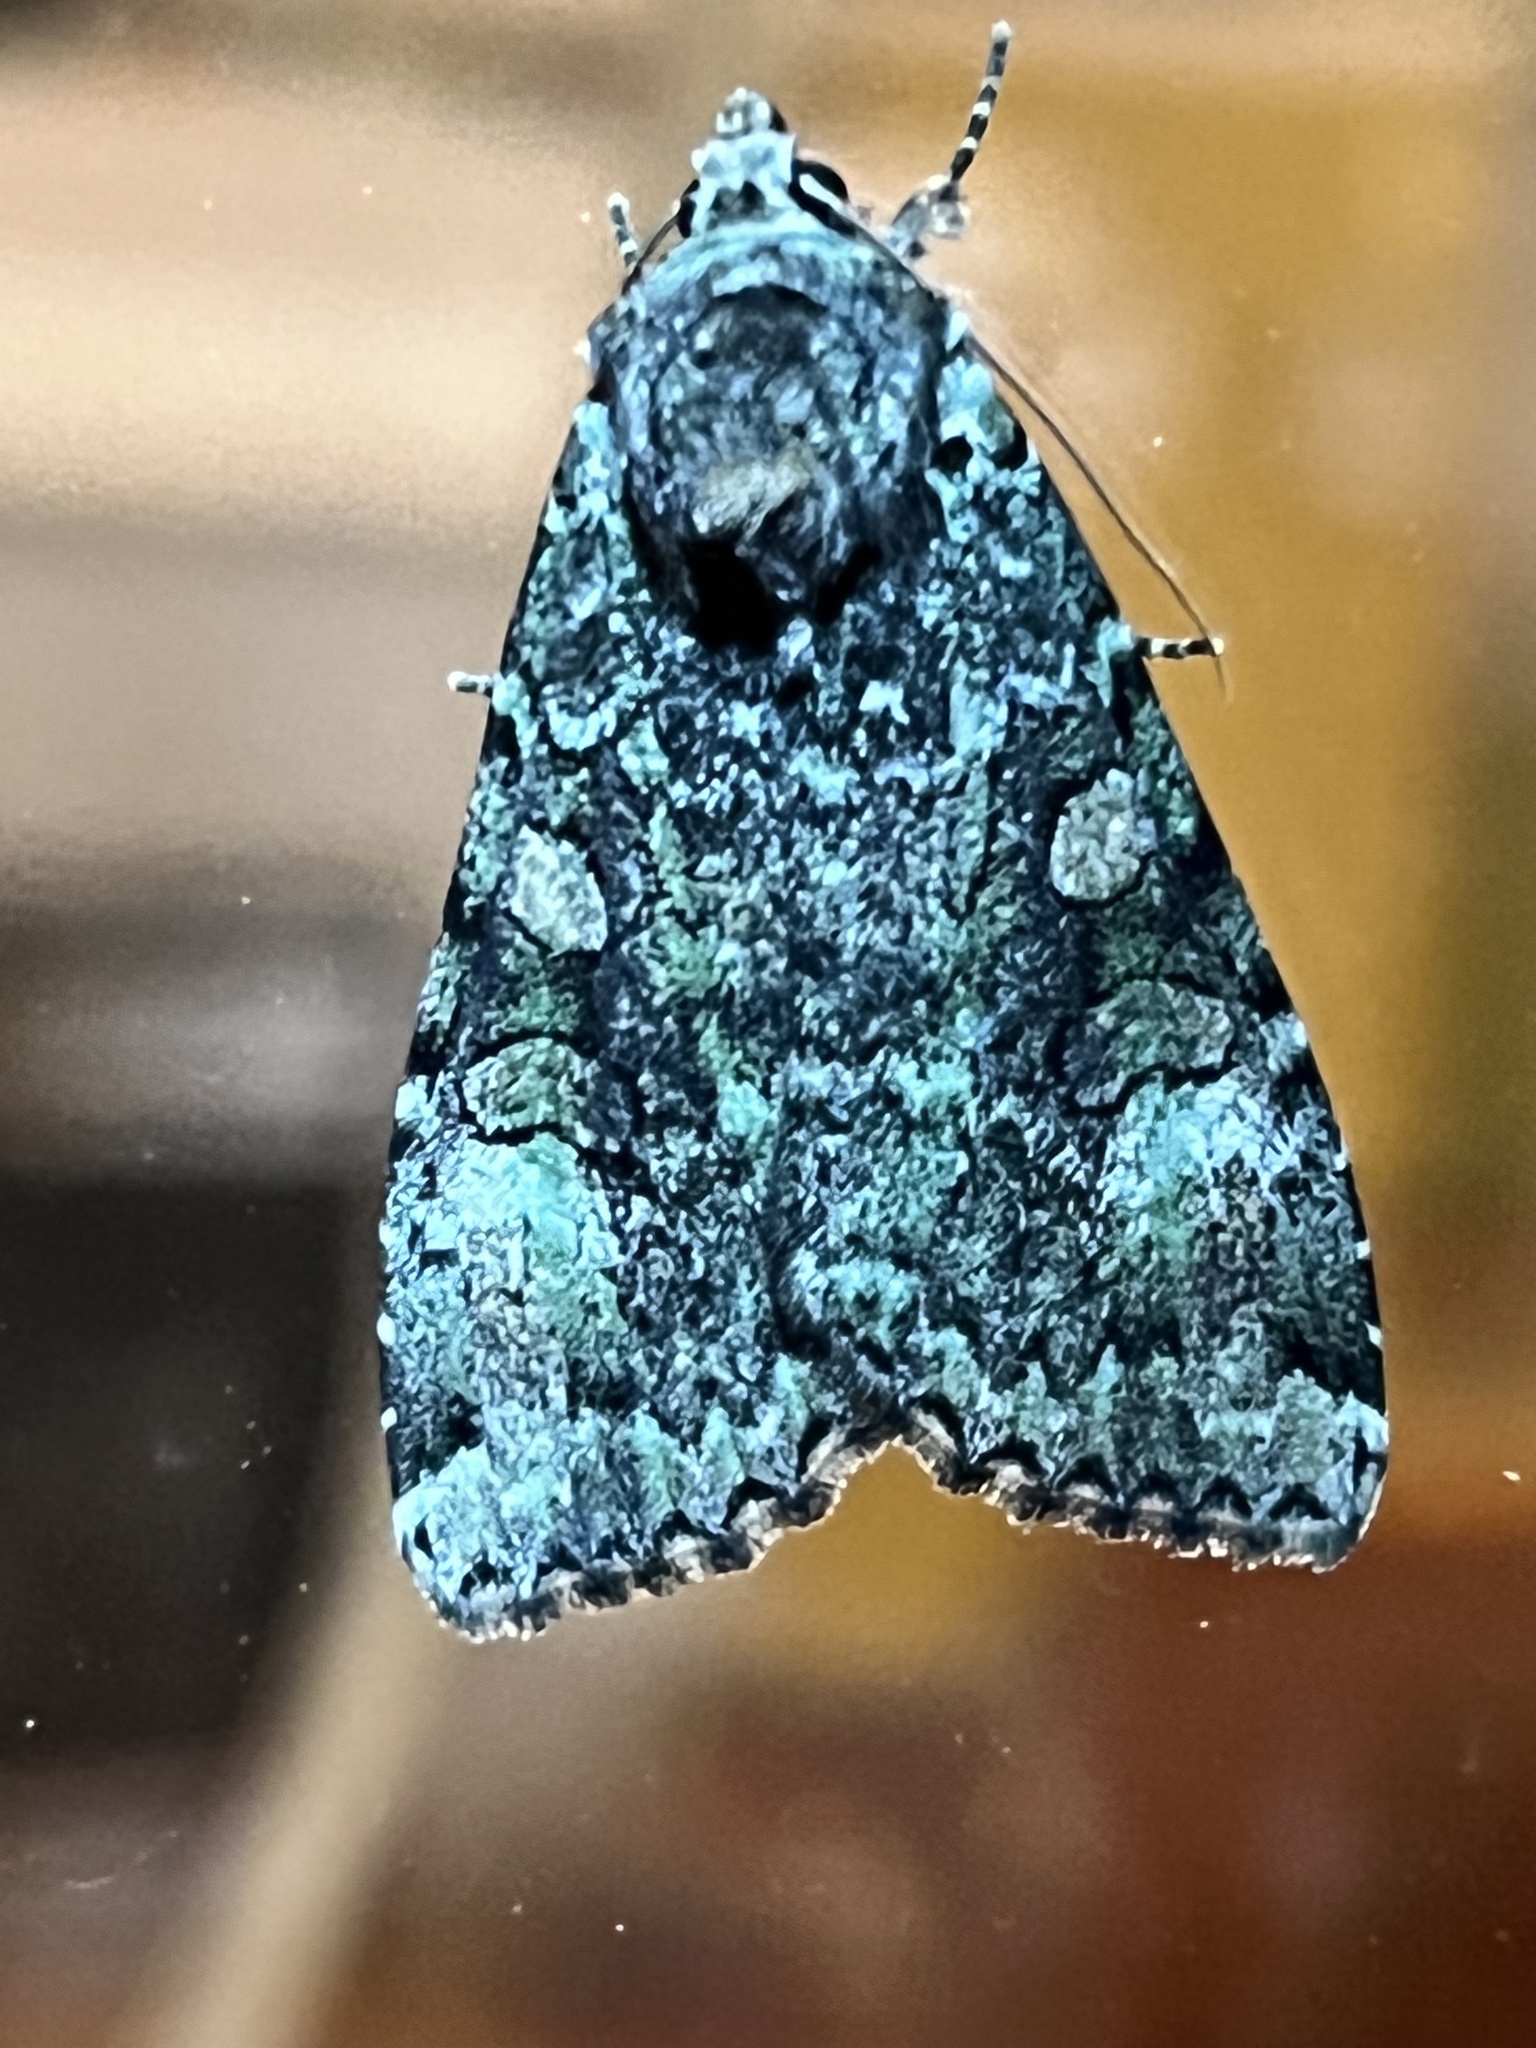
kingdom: Animalia
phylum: Arthropoda
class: Insecta
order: Lepidoptera
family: Noctuidae
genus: Anaplectoides
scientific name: Anaplectoides prasina
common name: Green arches
